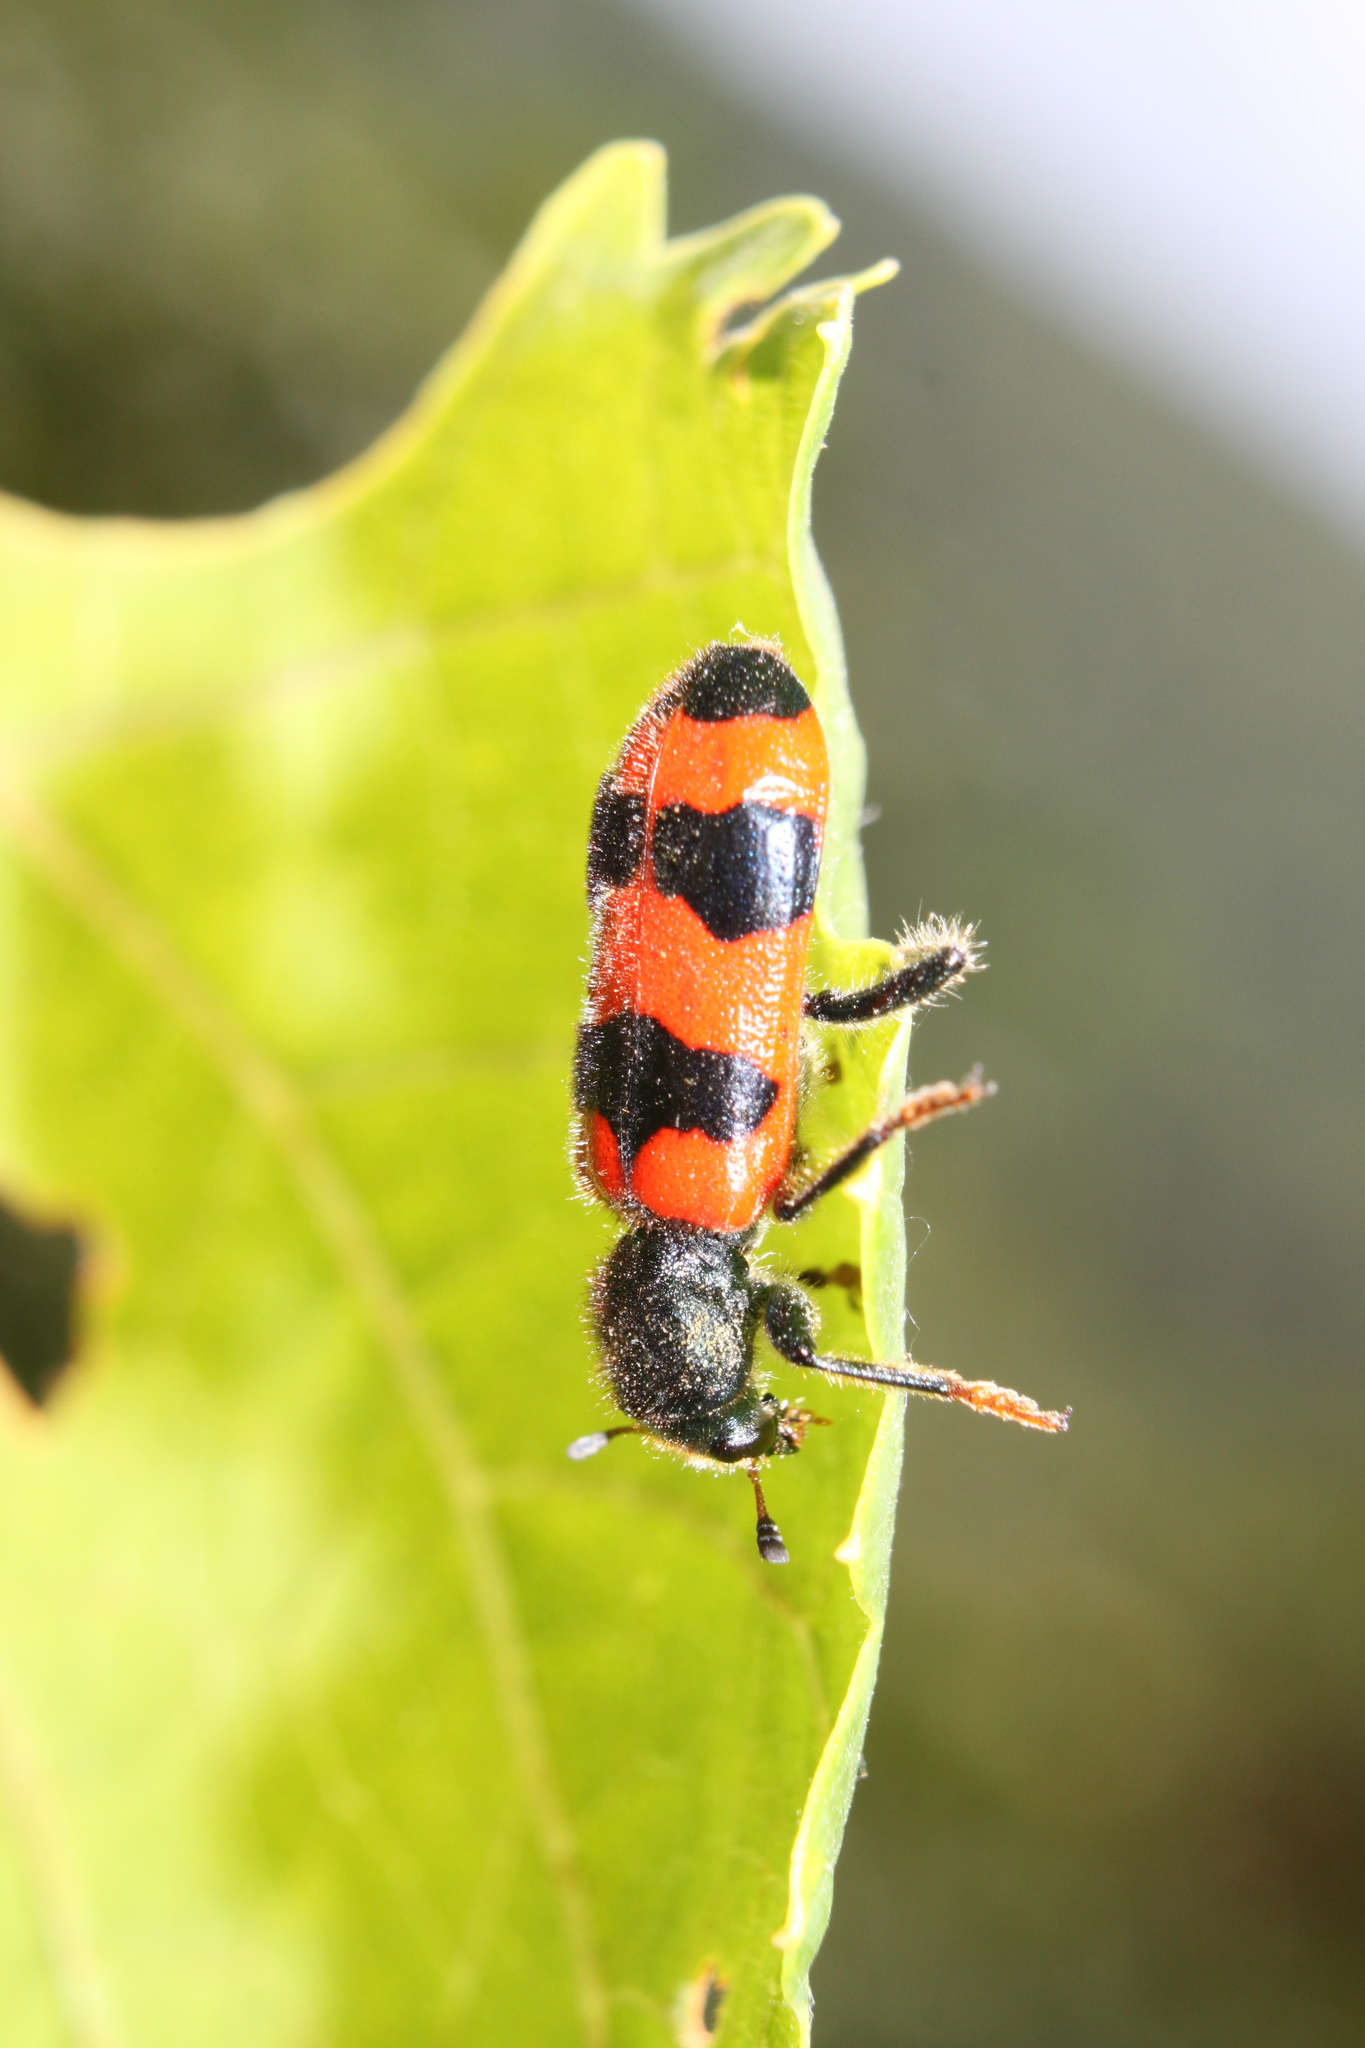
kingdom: Animalia
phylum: Arthropoda
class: Insecta
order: Coleoptera
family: Cleridae
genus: Trichodes
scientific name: Trichodes apiarius
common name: Bee-eating beetle
